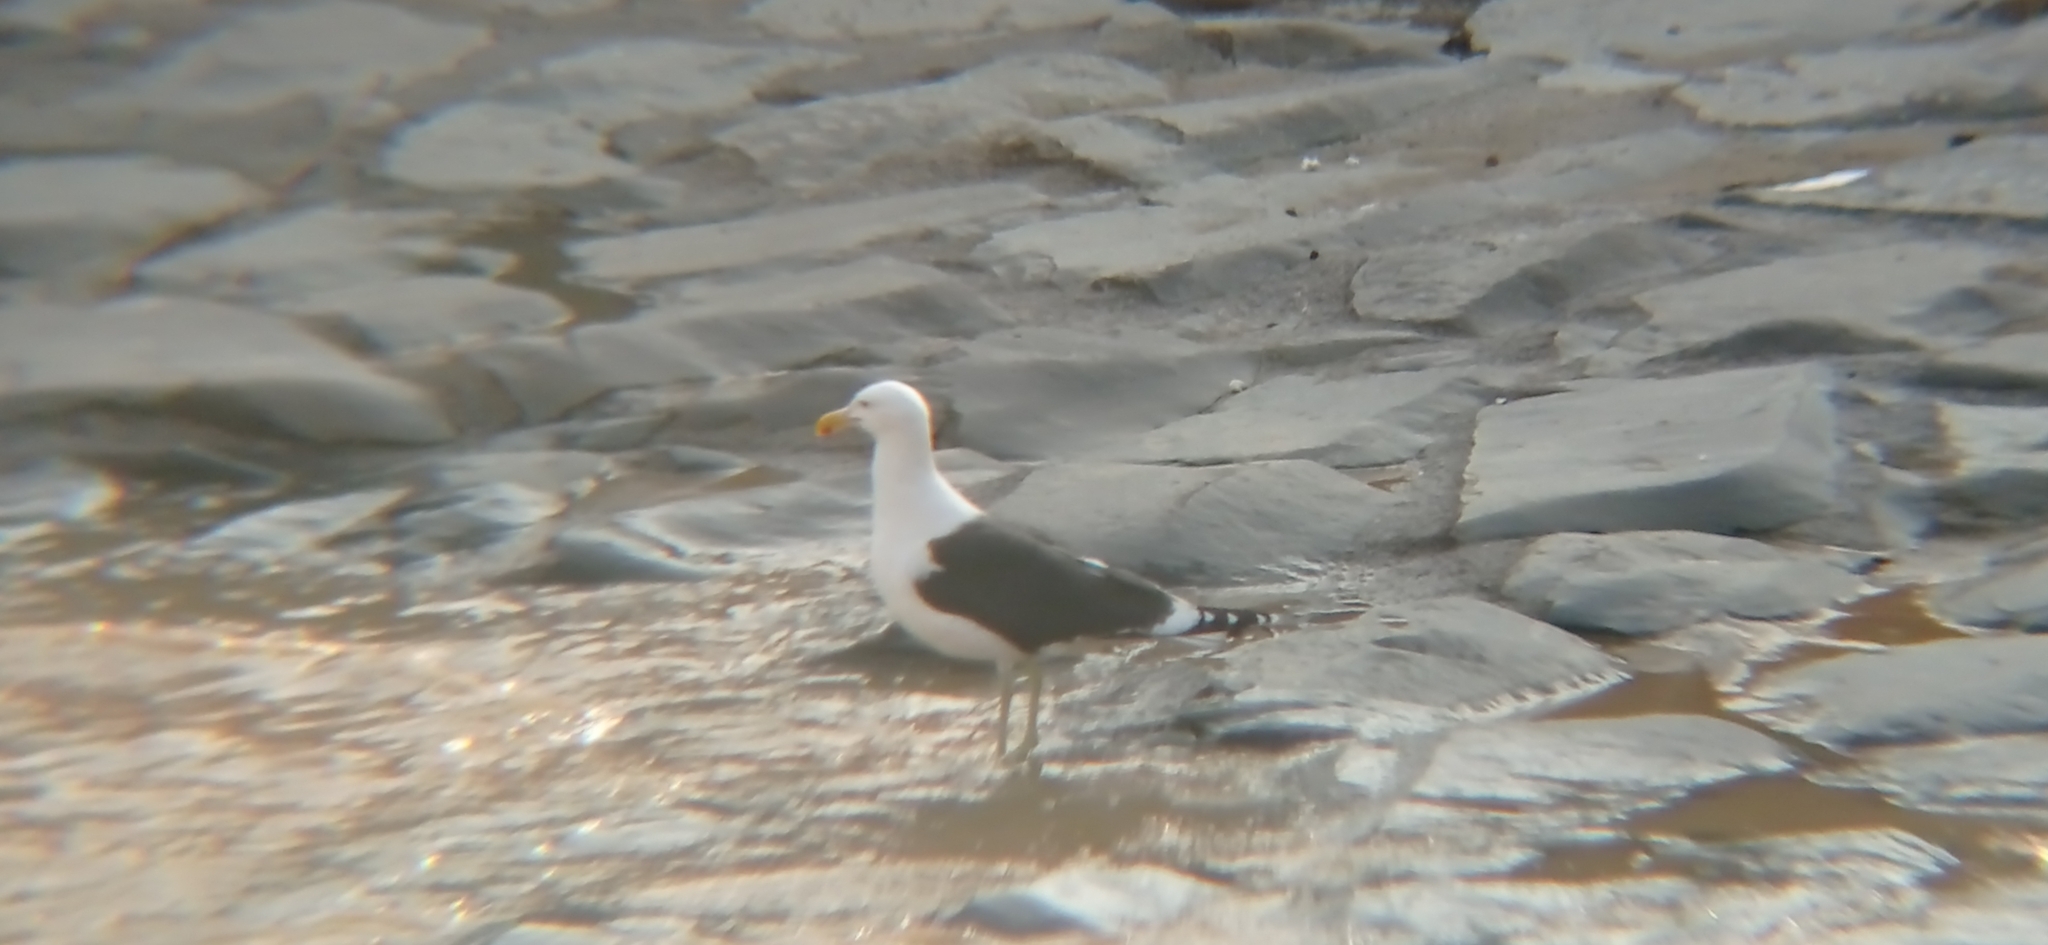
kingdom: Animalia
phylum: Chordata
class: Aves
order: Charadriiformes
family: Laridae
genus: Larus
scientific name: Larus dominicanus
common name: Kelp gull
